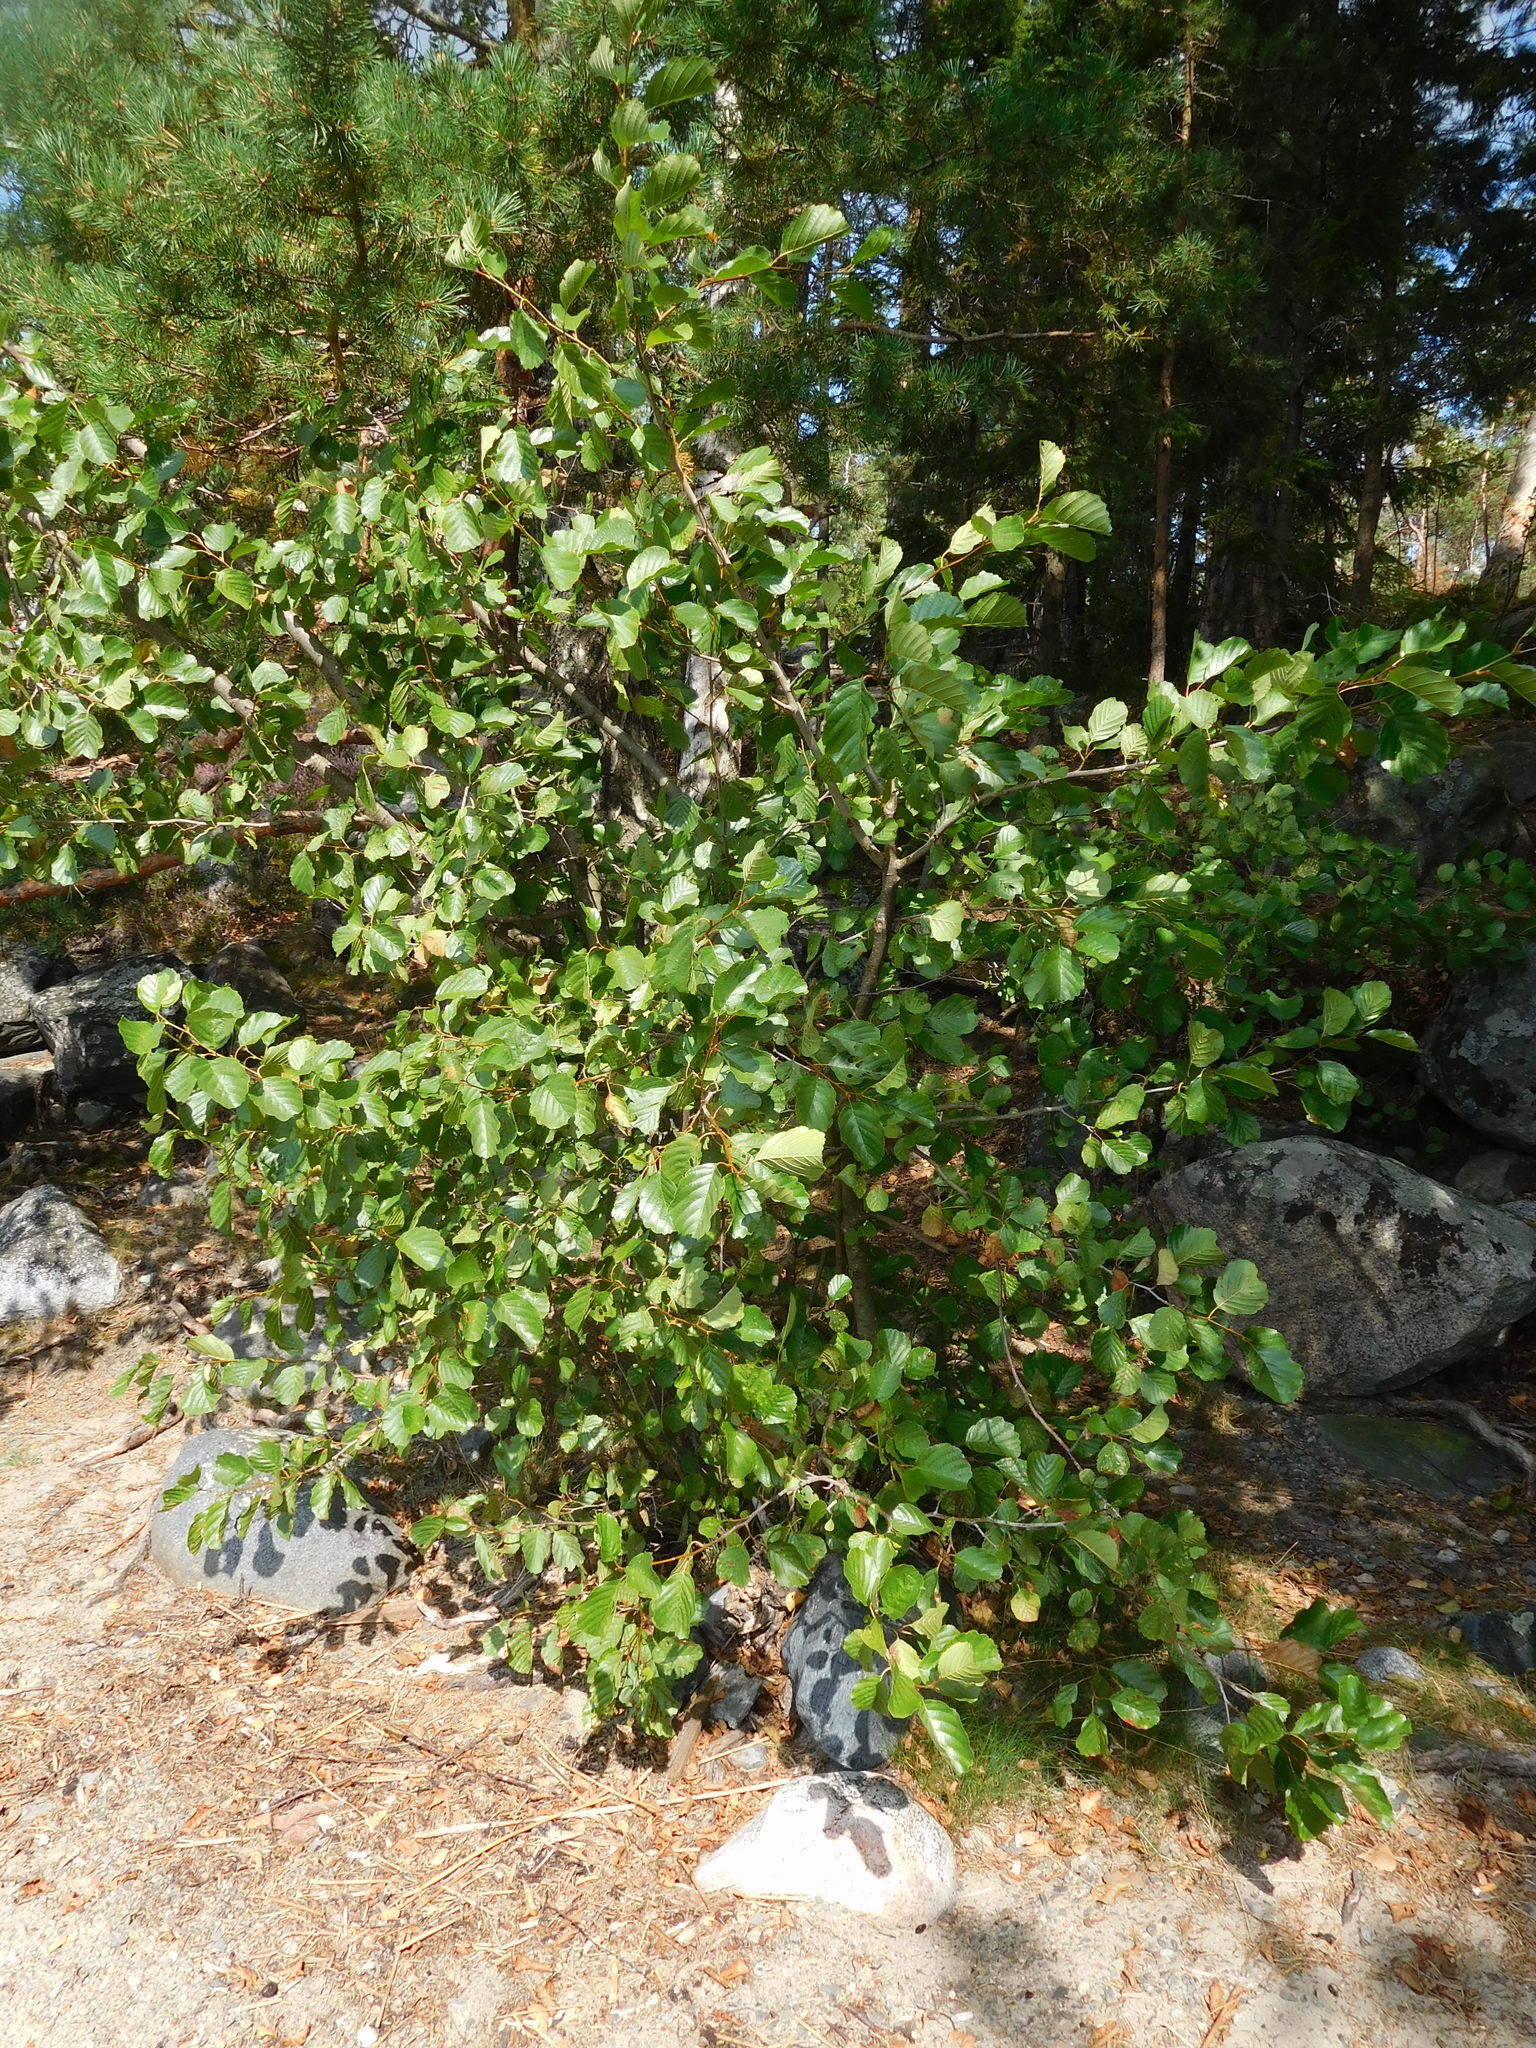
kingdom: Plantae
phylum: Tracheophyta
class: Magnoliopsida
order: Fagales
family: Betulaceae
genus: Alnus
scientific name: Alnus glutinosa
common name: Black alder
